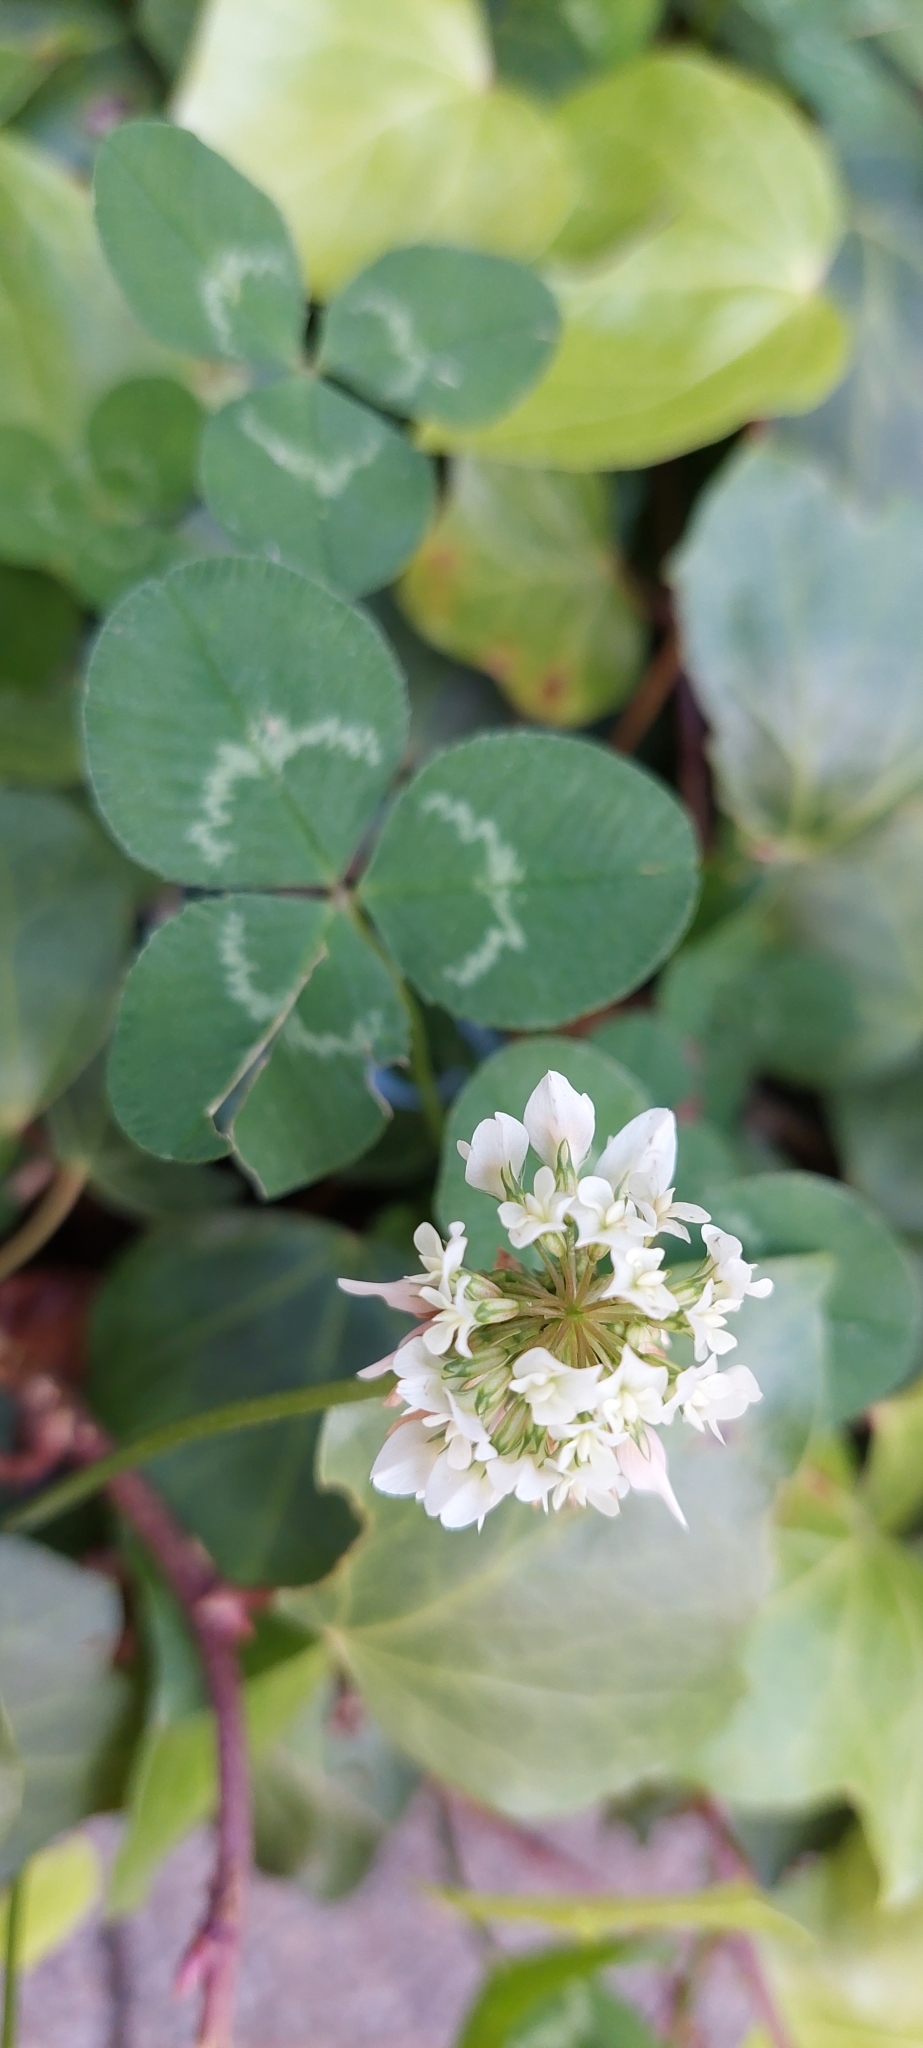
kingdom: Plantae
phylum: Tracheophyta
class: Magnoliopsida
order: Fabales
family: Fabaceae
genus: Trifolium
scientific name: Trifolium repens
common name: White clover
